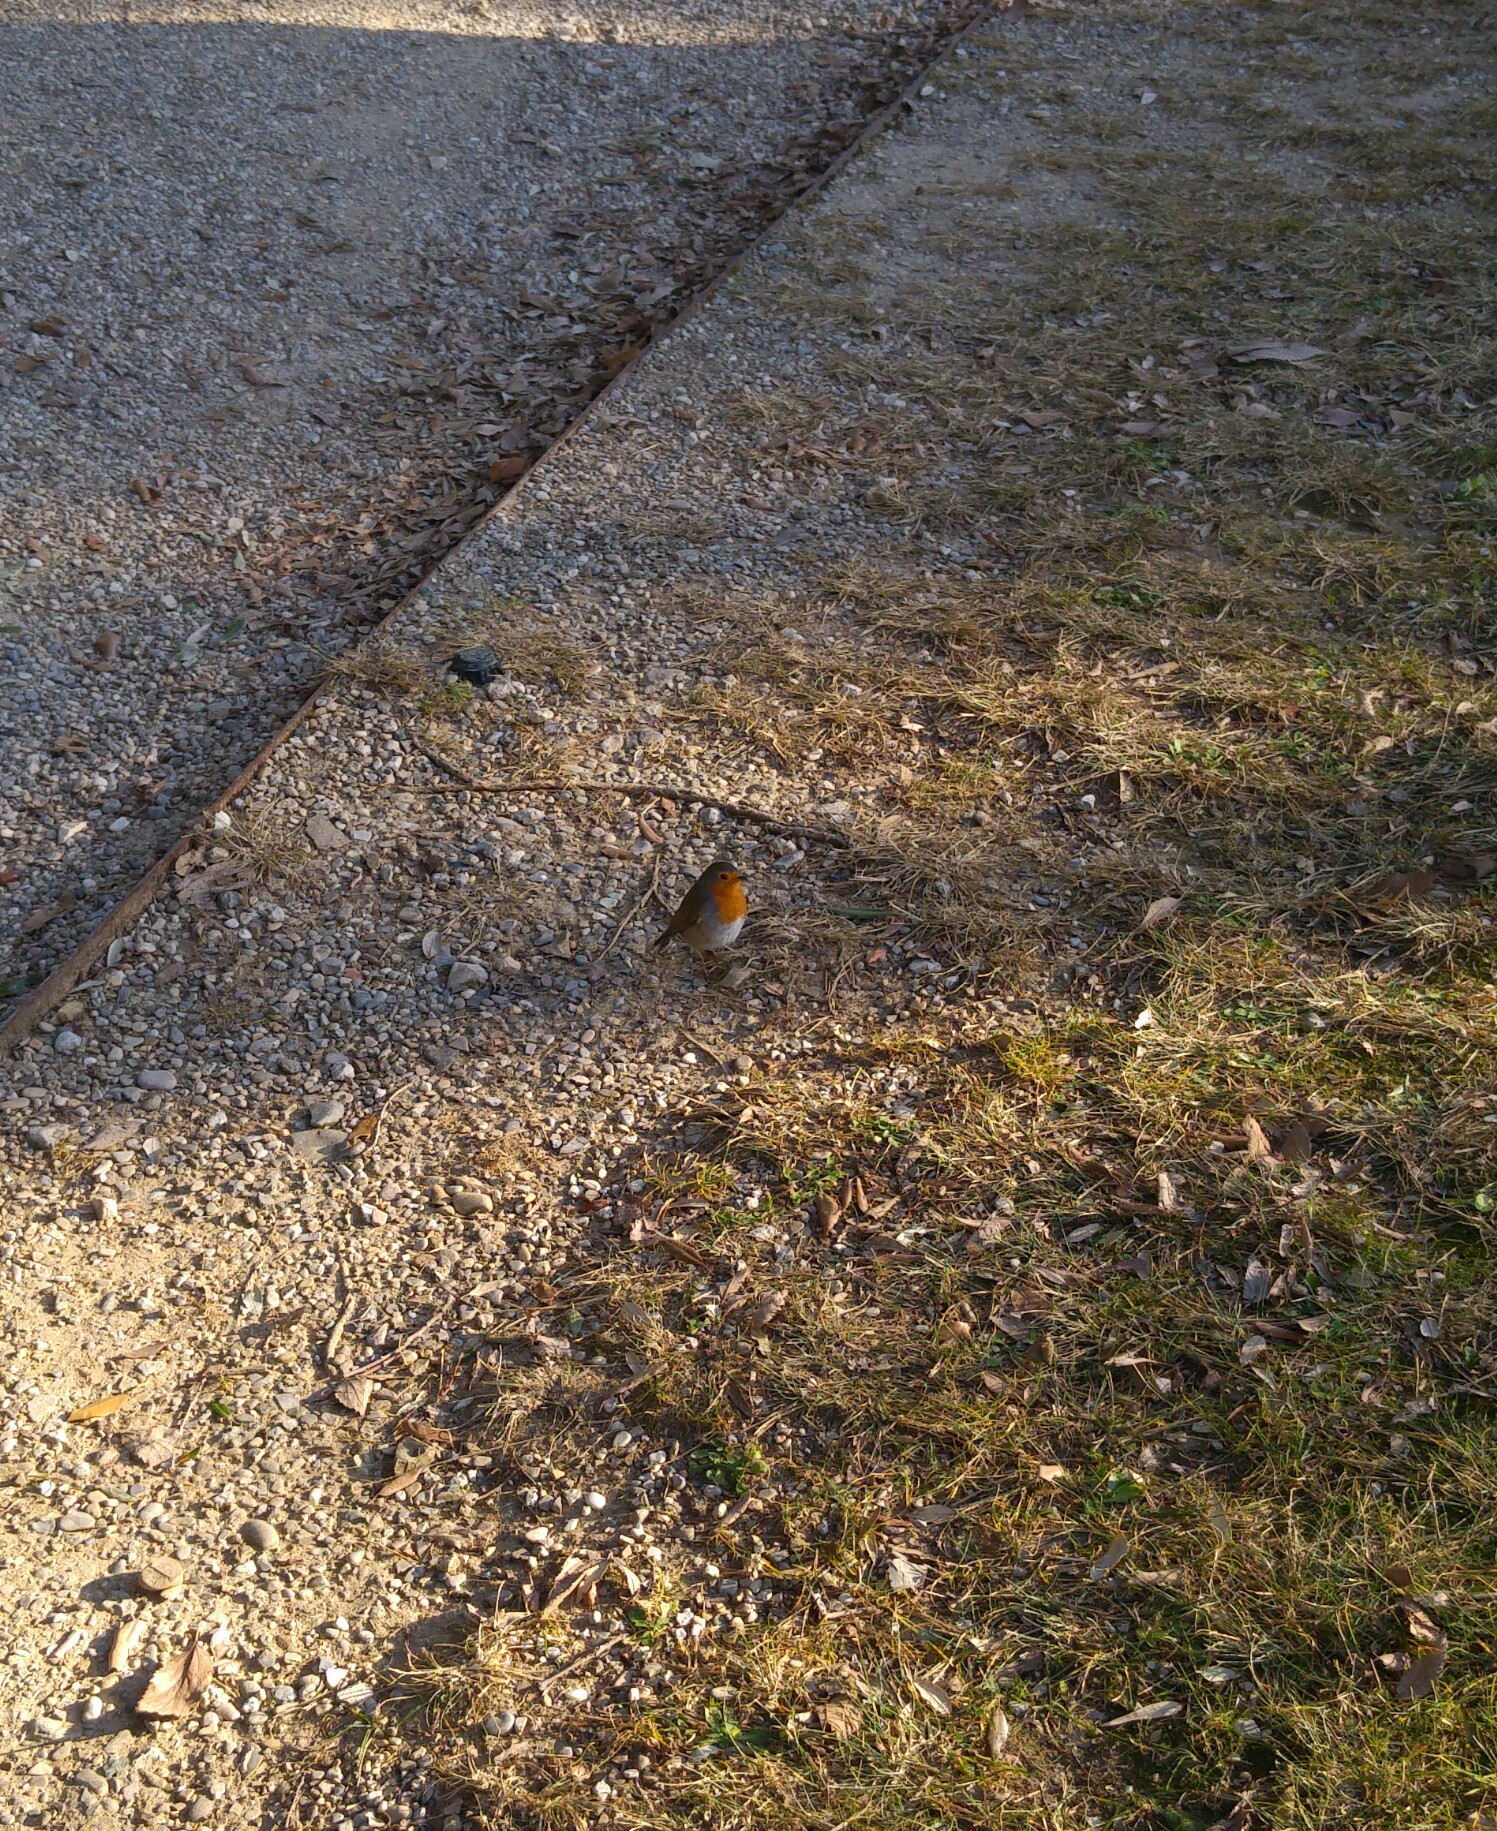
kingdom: Animalia
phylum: Chordata
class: Aves
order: Passeriformes
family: Muscicapidae
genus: Erithacus
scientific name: Erithacus rubecula
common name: European robin
